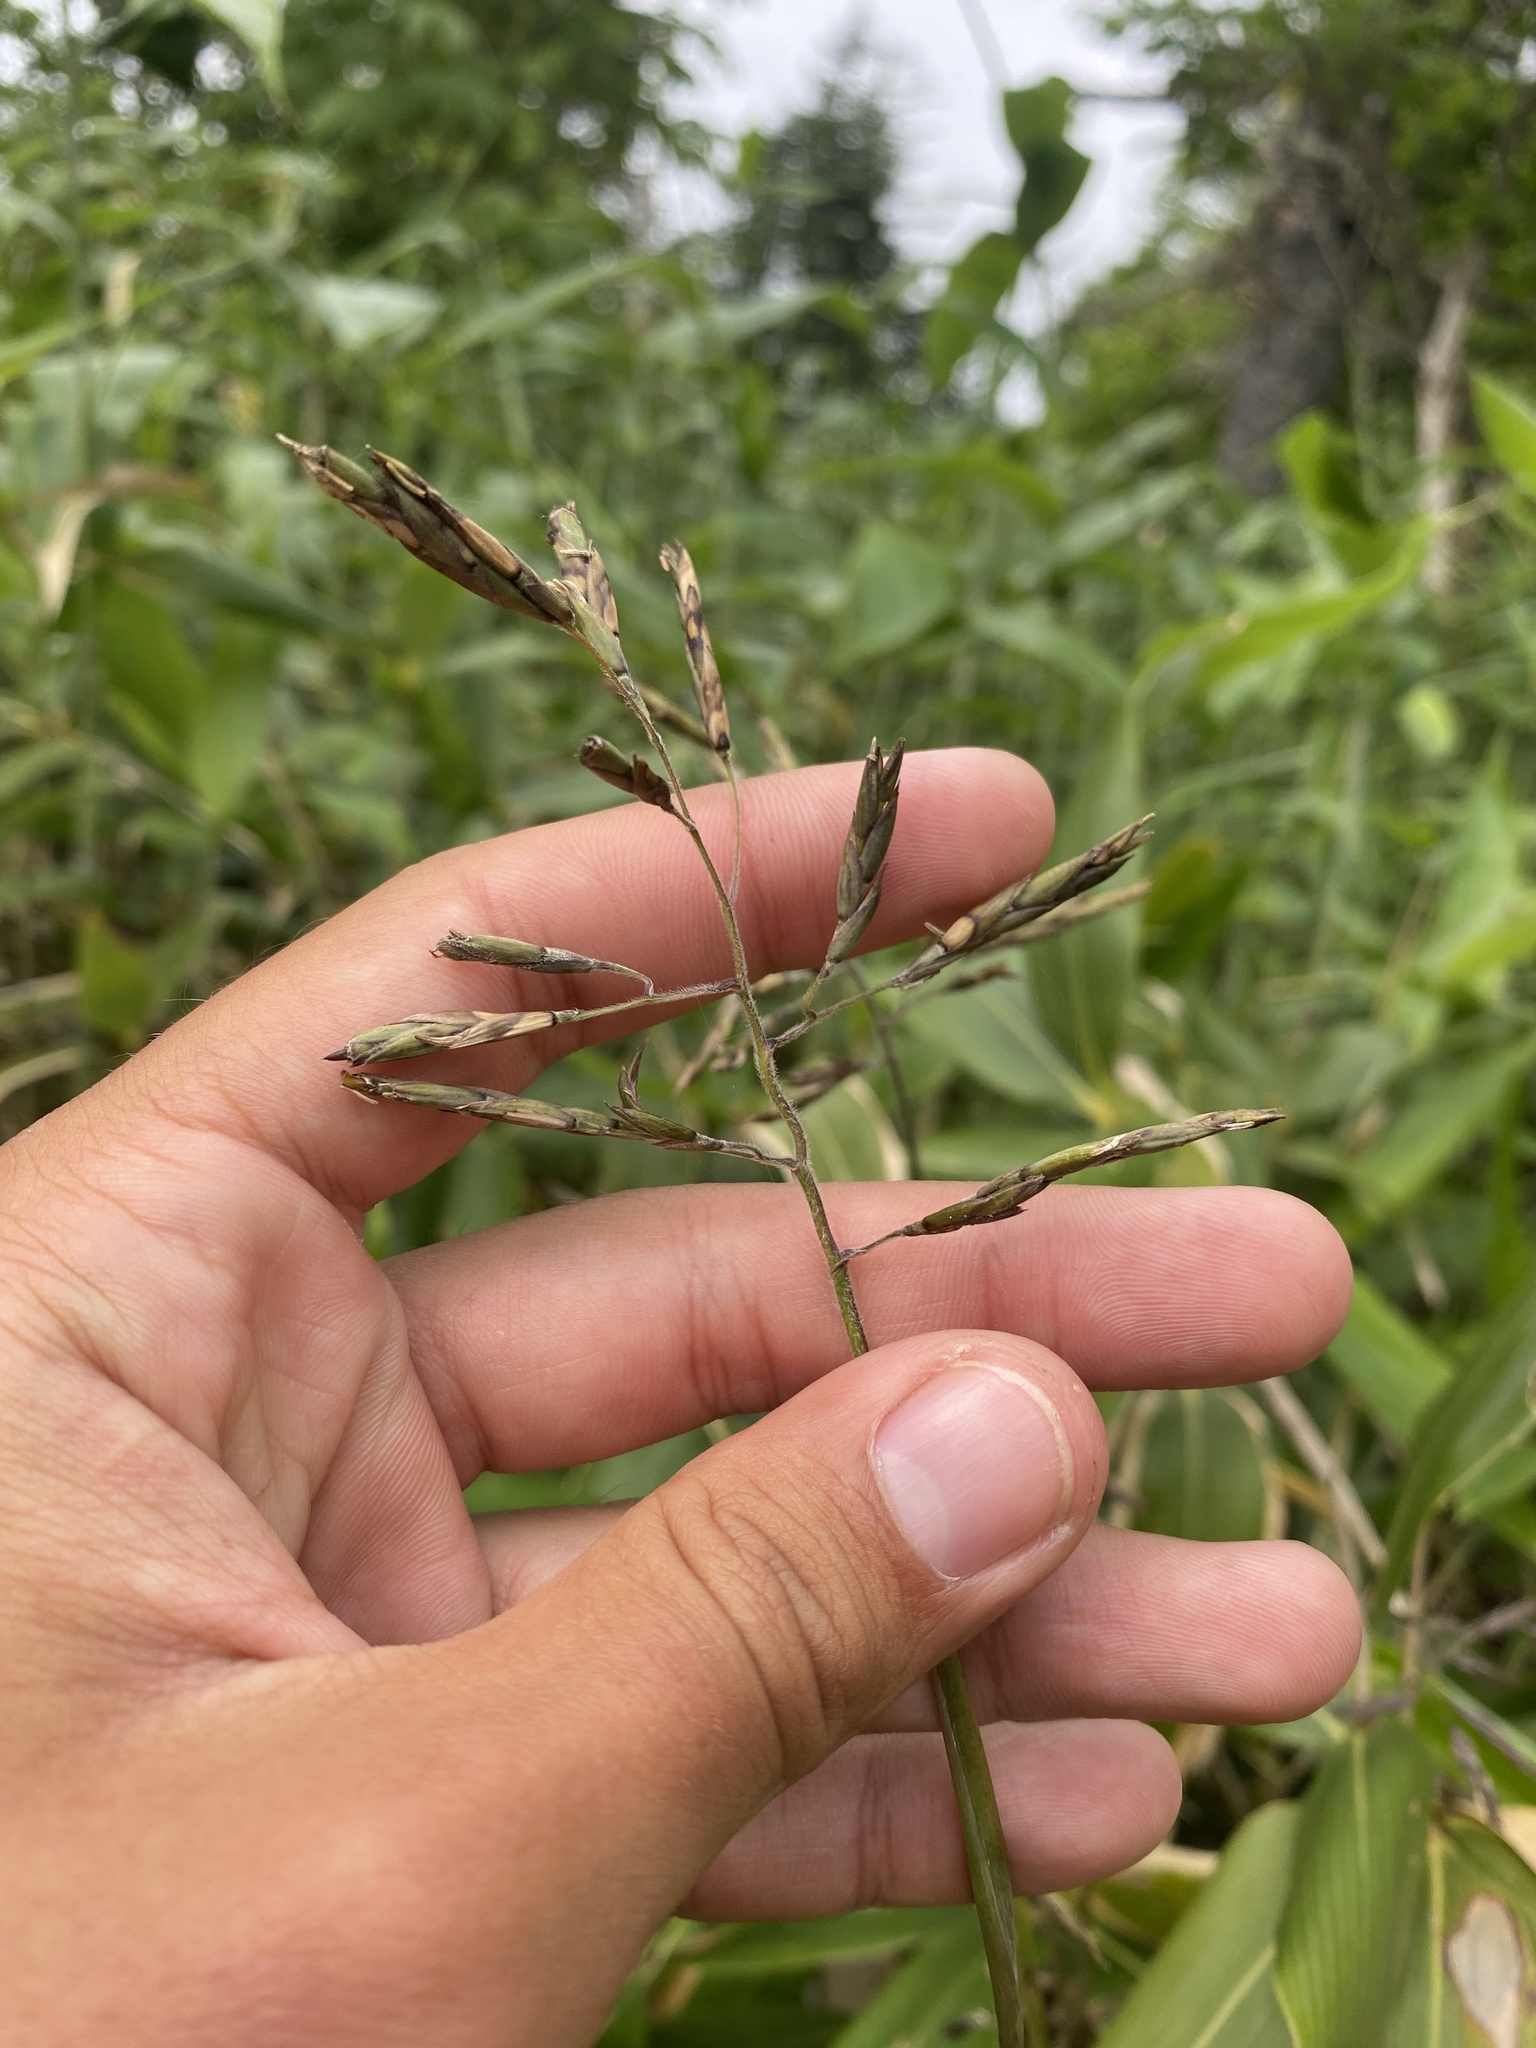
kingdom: Plantae
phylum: Tracheophyta
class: Liliopsida
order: Poales
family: Poaceae
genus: Sasa
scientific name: Sasa
